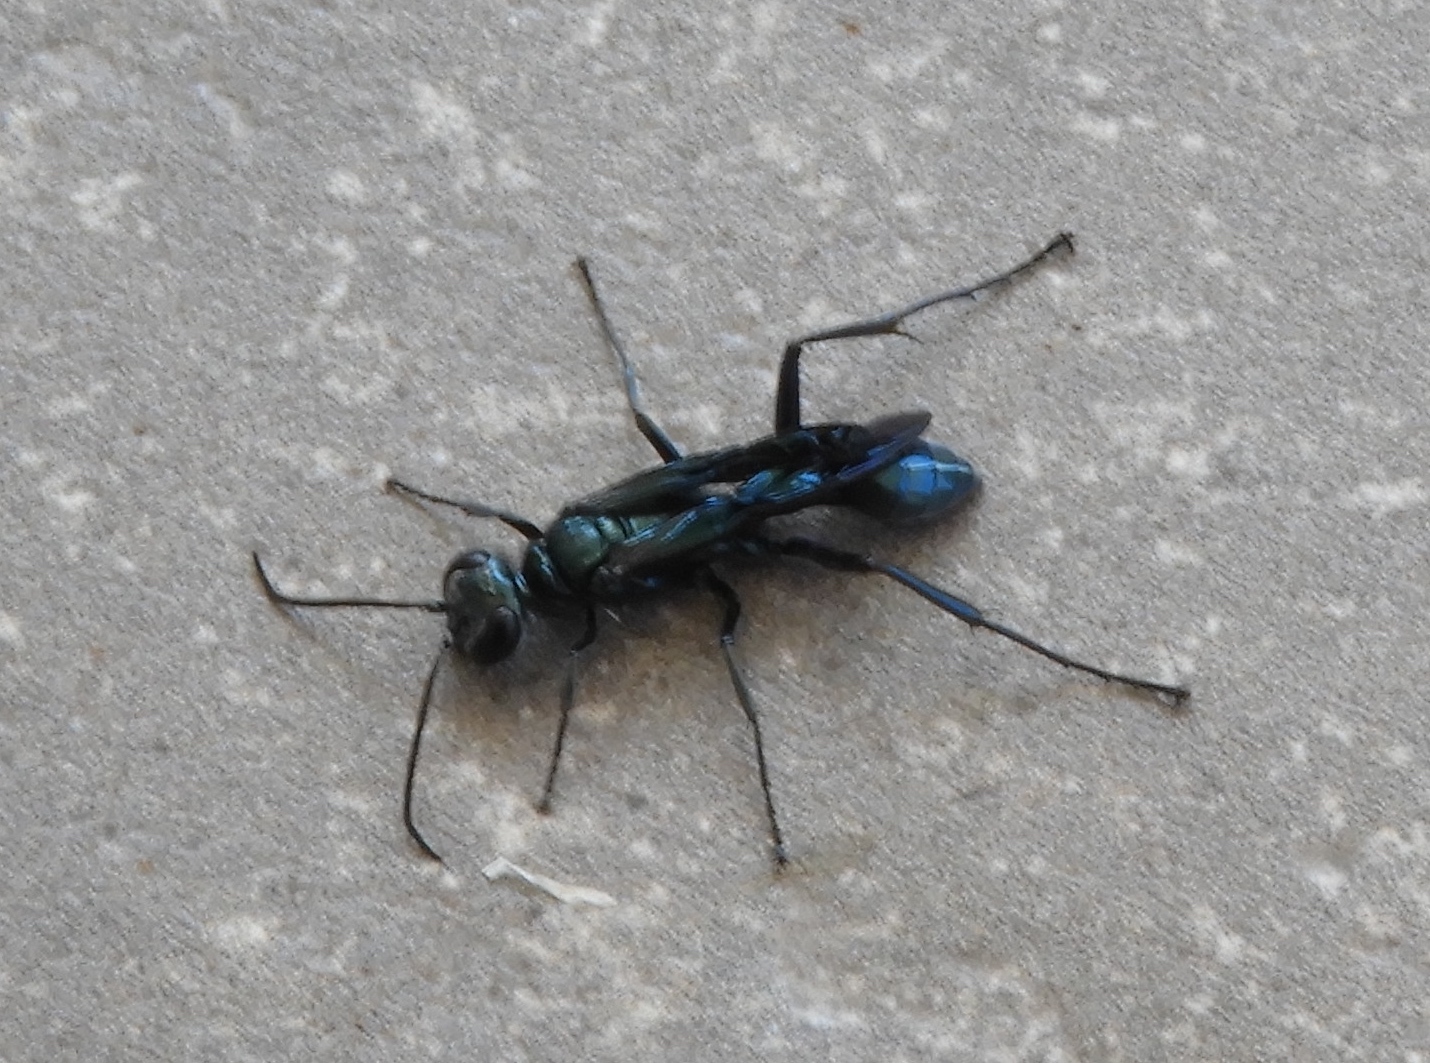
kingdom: Animalia
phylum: Arthropoda
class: Insecta
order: Hymenoptera
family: Sphecidae
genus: Chalybion
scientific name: Chalybion californicum
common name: Mud dauber
